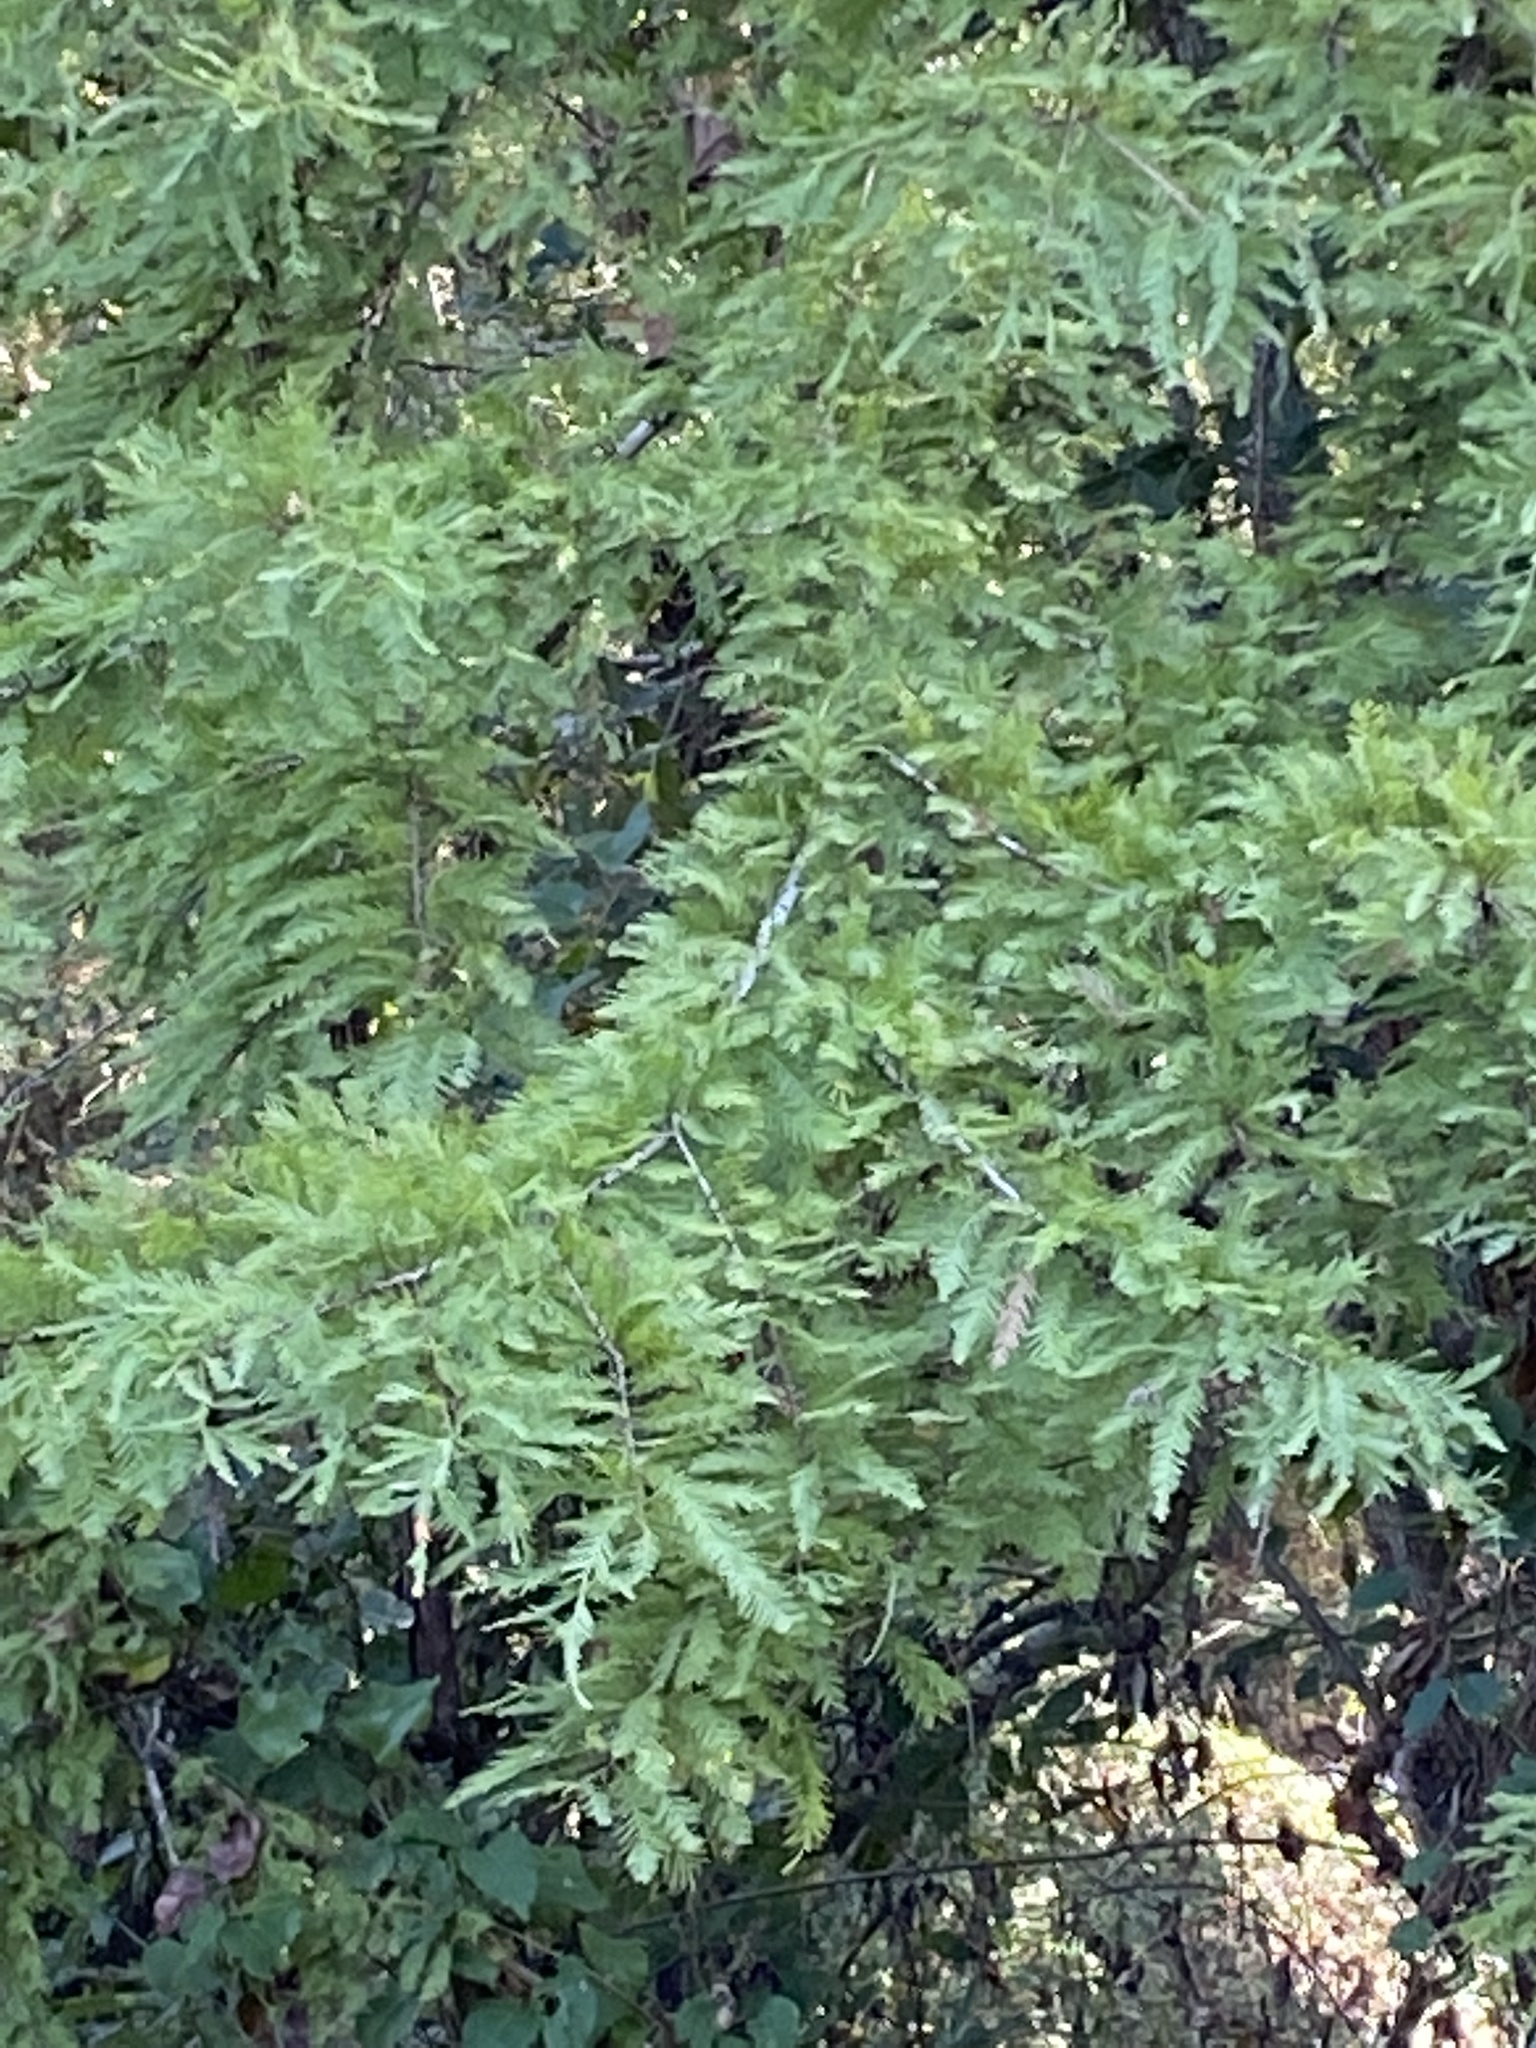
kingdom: Plantae
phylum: Tracheophyta
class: Pinopsida
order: Pinales
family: Cupressaceae
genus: Taxodium
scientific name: Taxodium distichum
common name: Bald cypress
